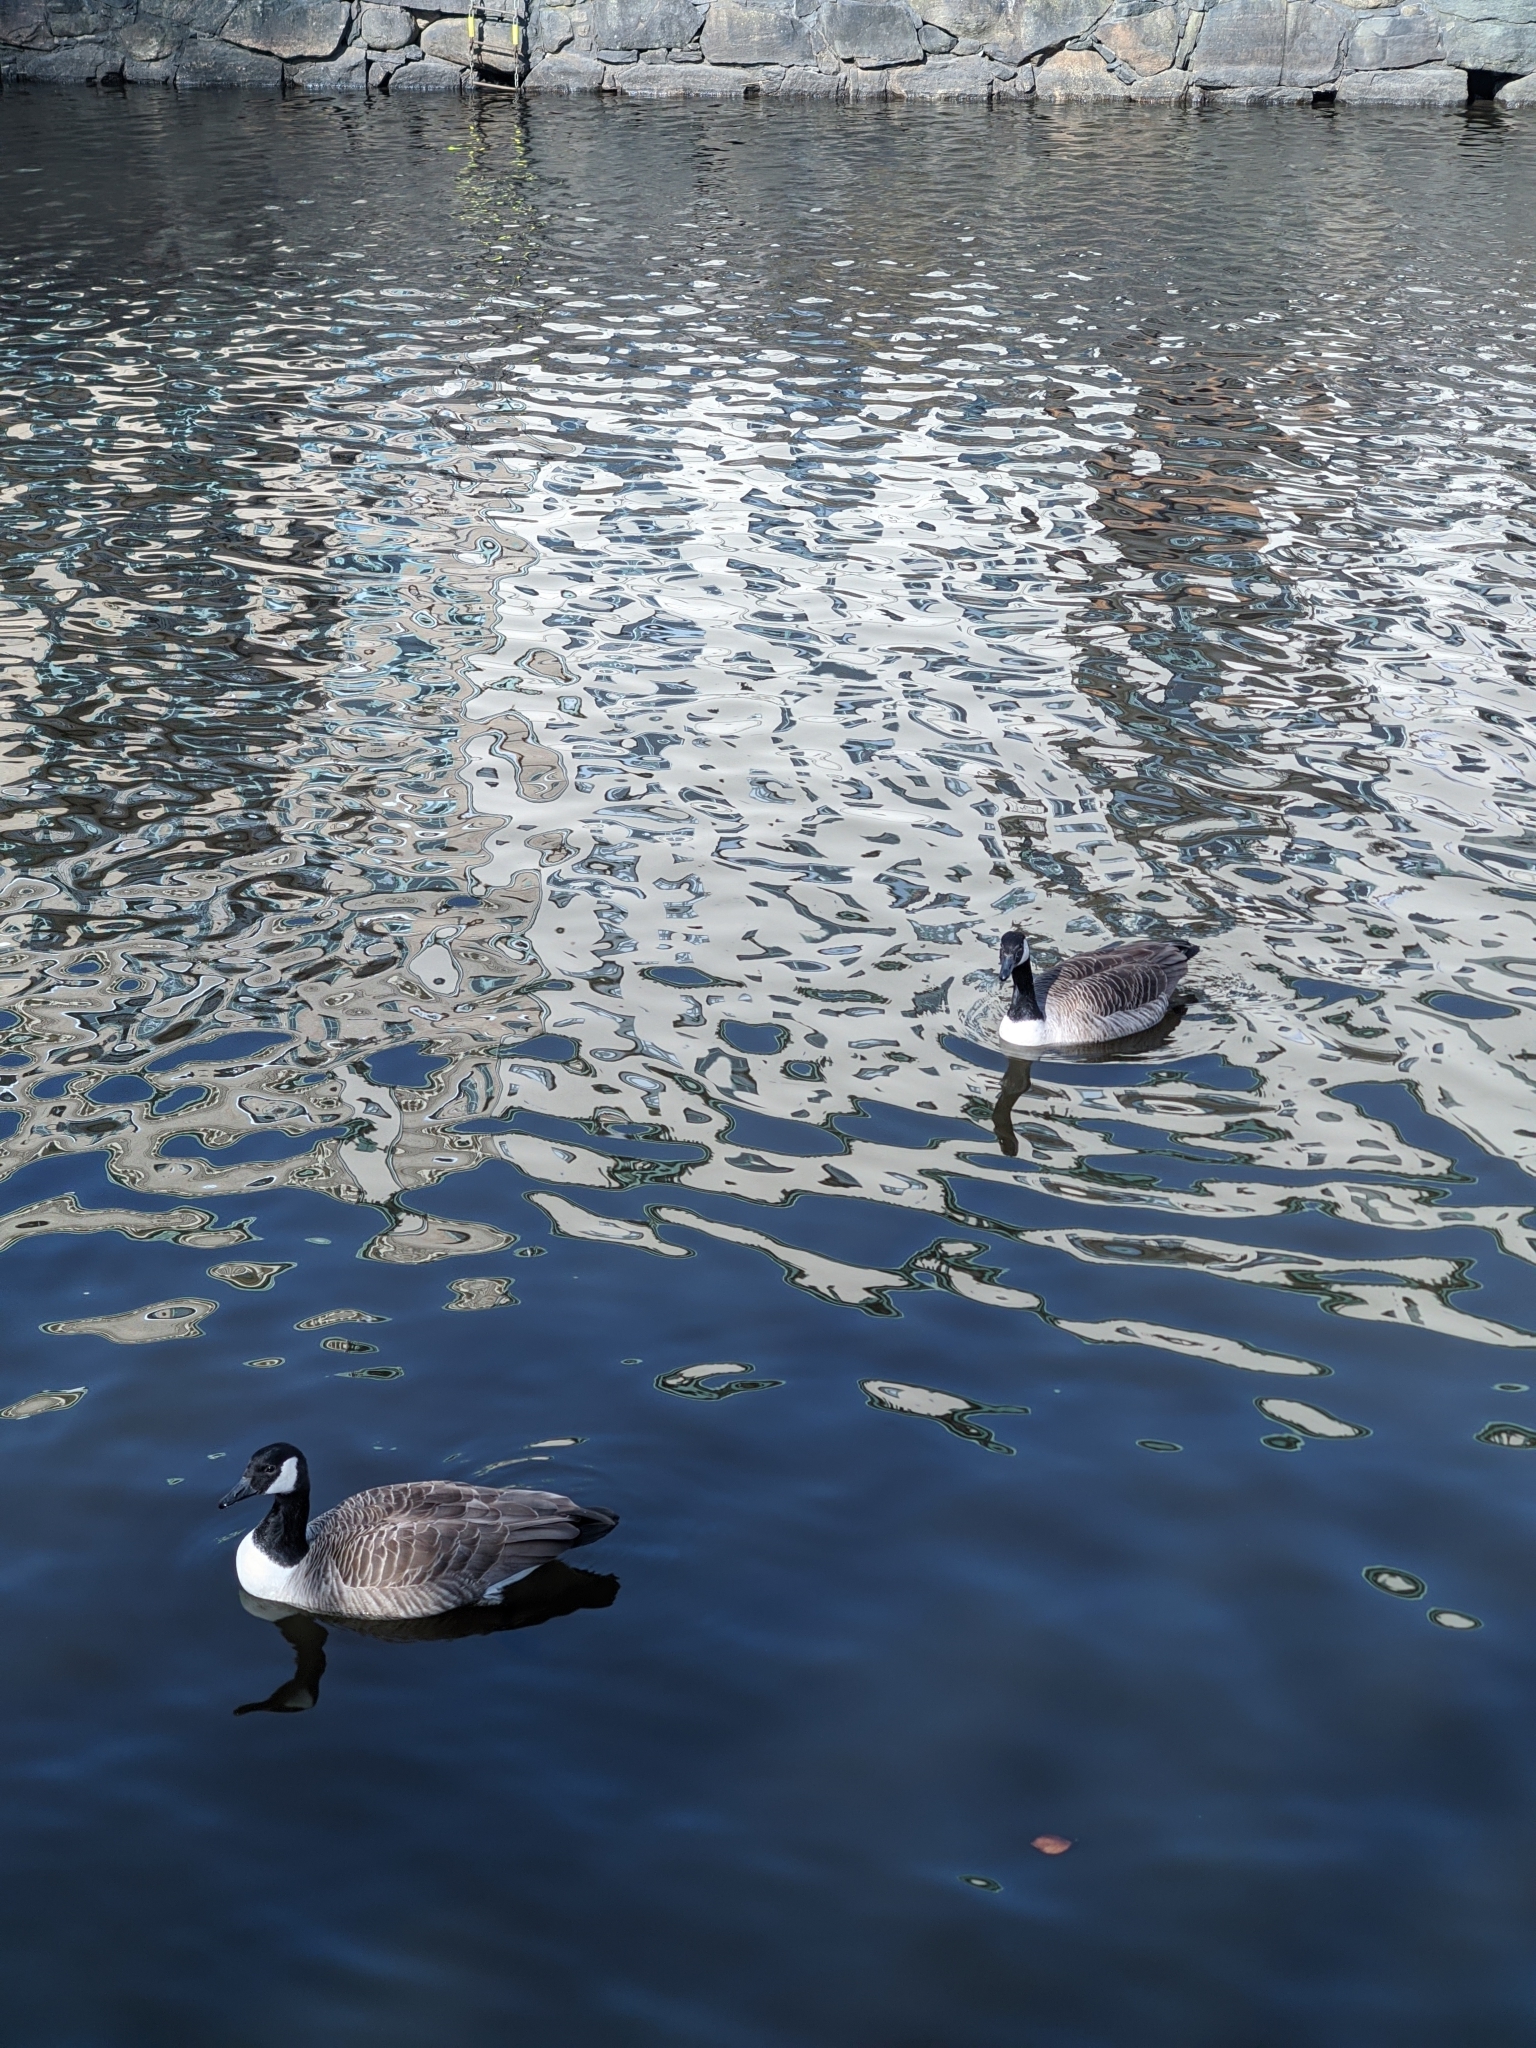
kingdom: Animalia
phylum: Chordata
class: Aves
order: Anseriformes
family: Anatidae
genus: Branta
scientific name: Branta canadensis
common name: Canada goose
